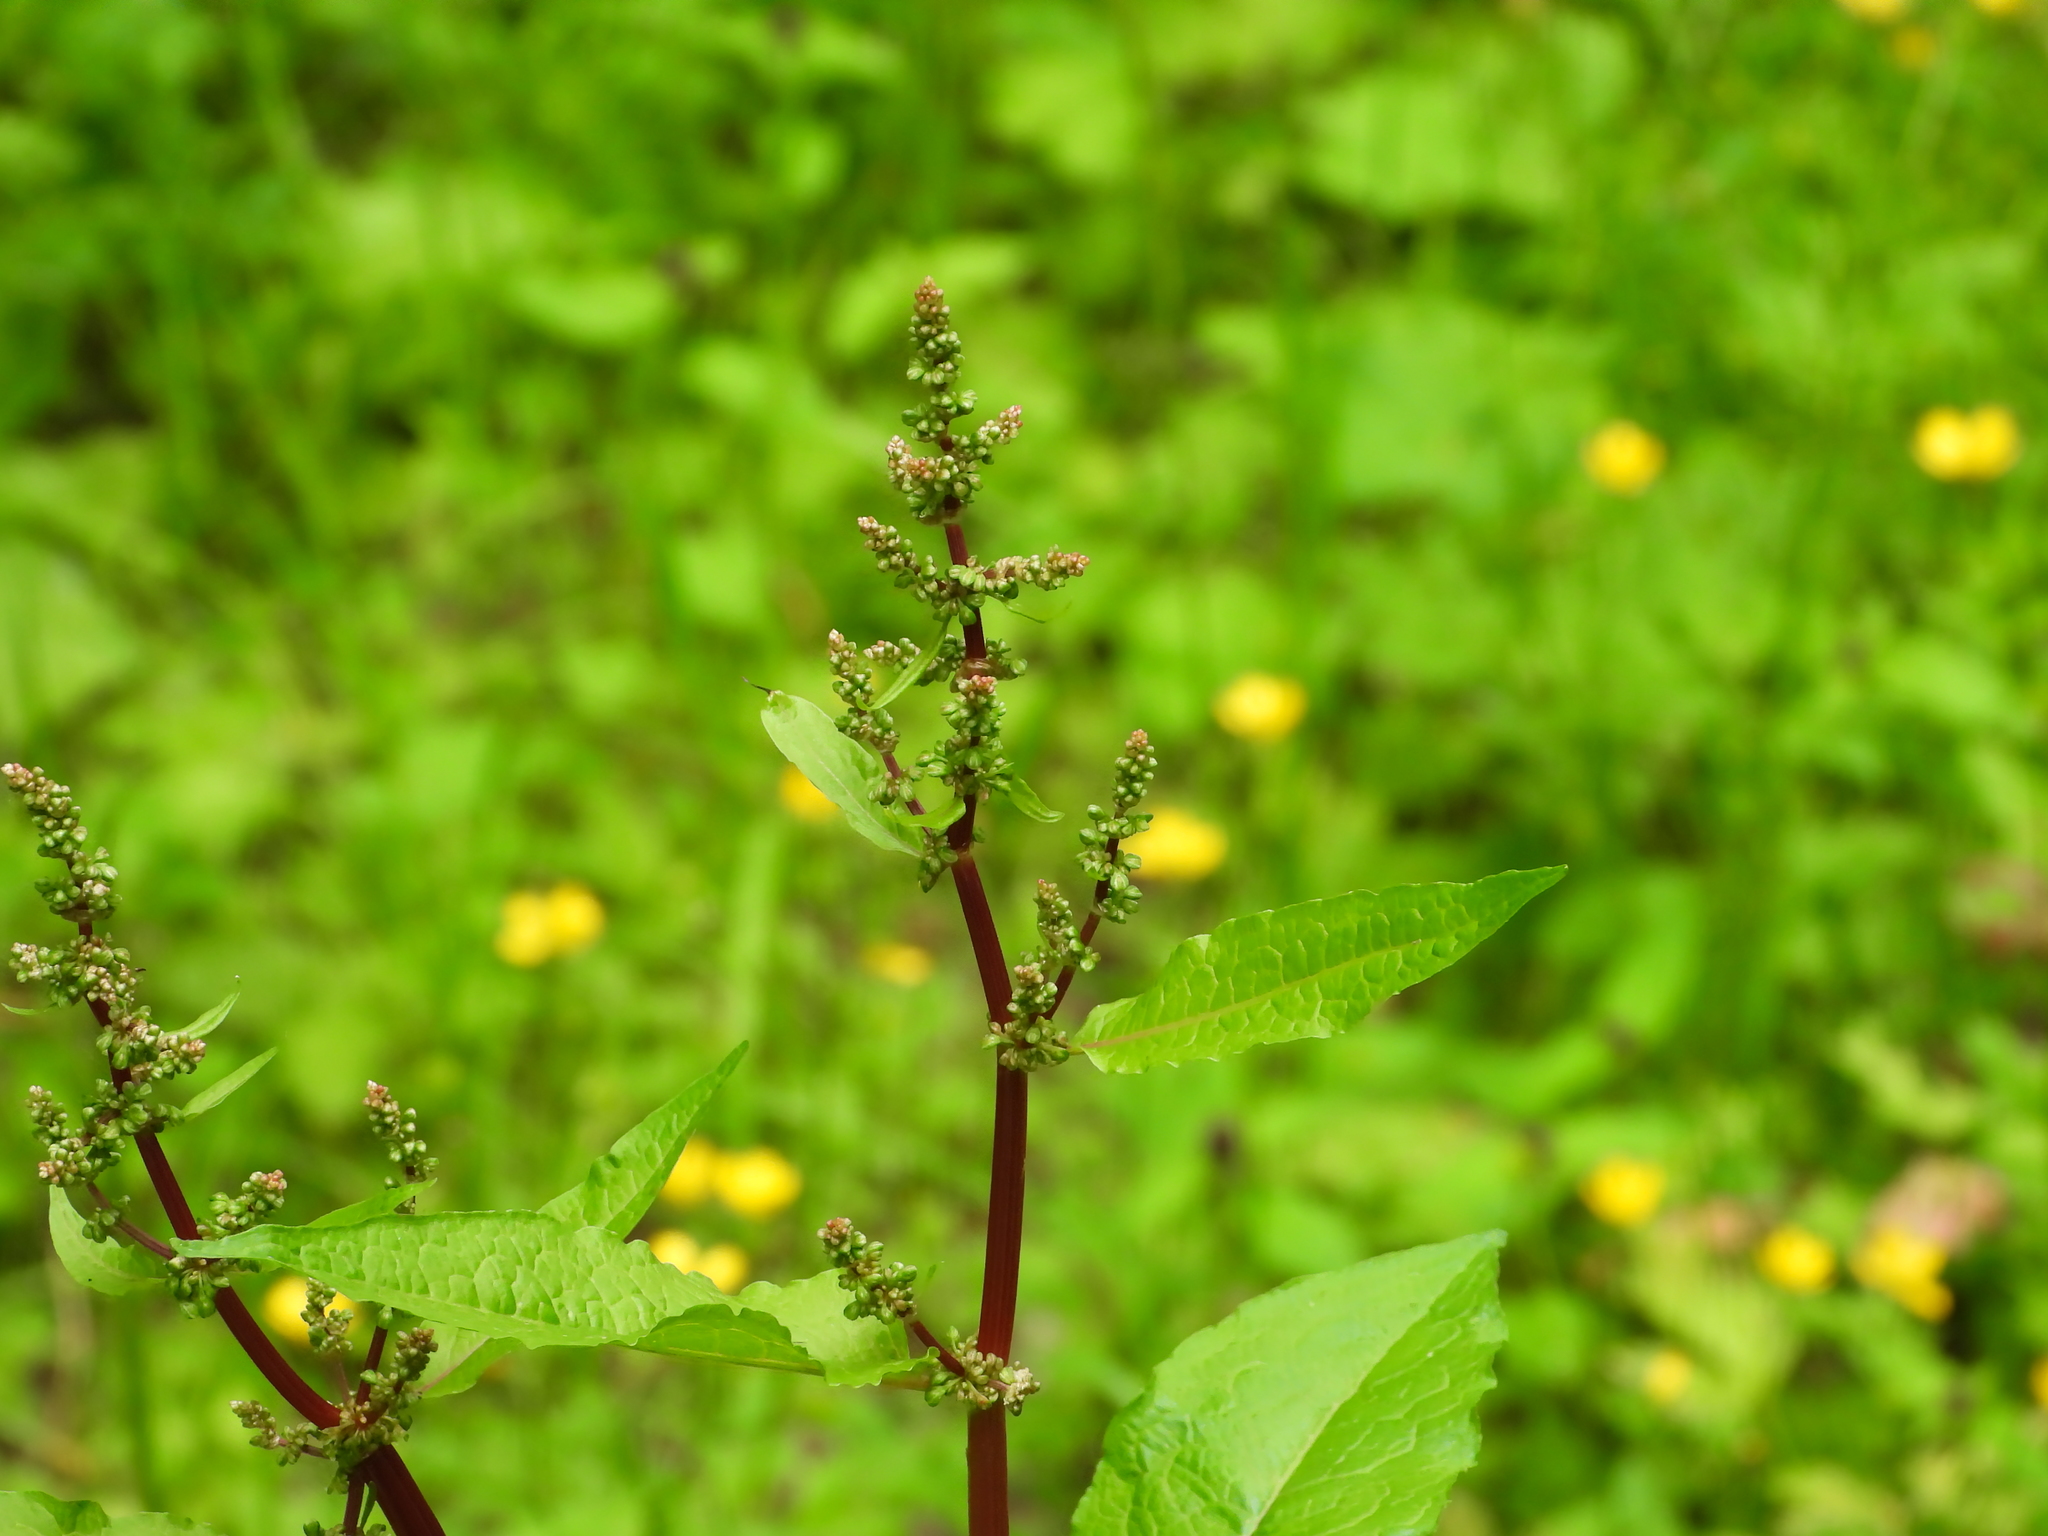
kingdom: Plantae
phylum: Tracheophyta
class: Magnoliopsida
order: Caryophyllales
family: Polygonaceae
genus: Rumex
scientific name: Rumex obtusifolius
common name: Bitter dock
